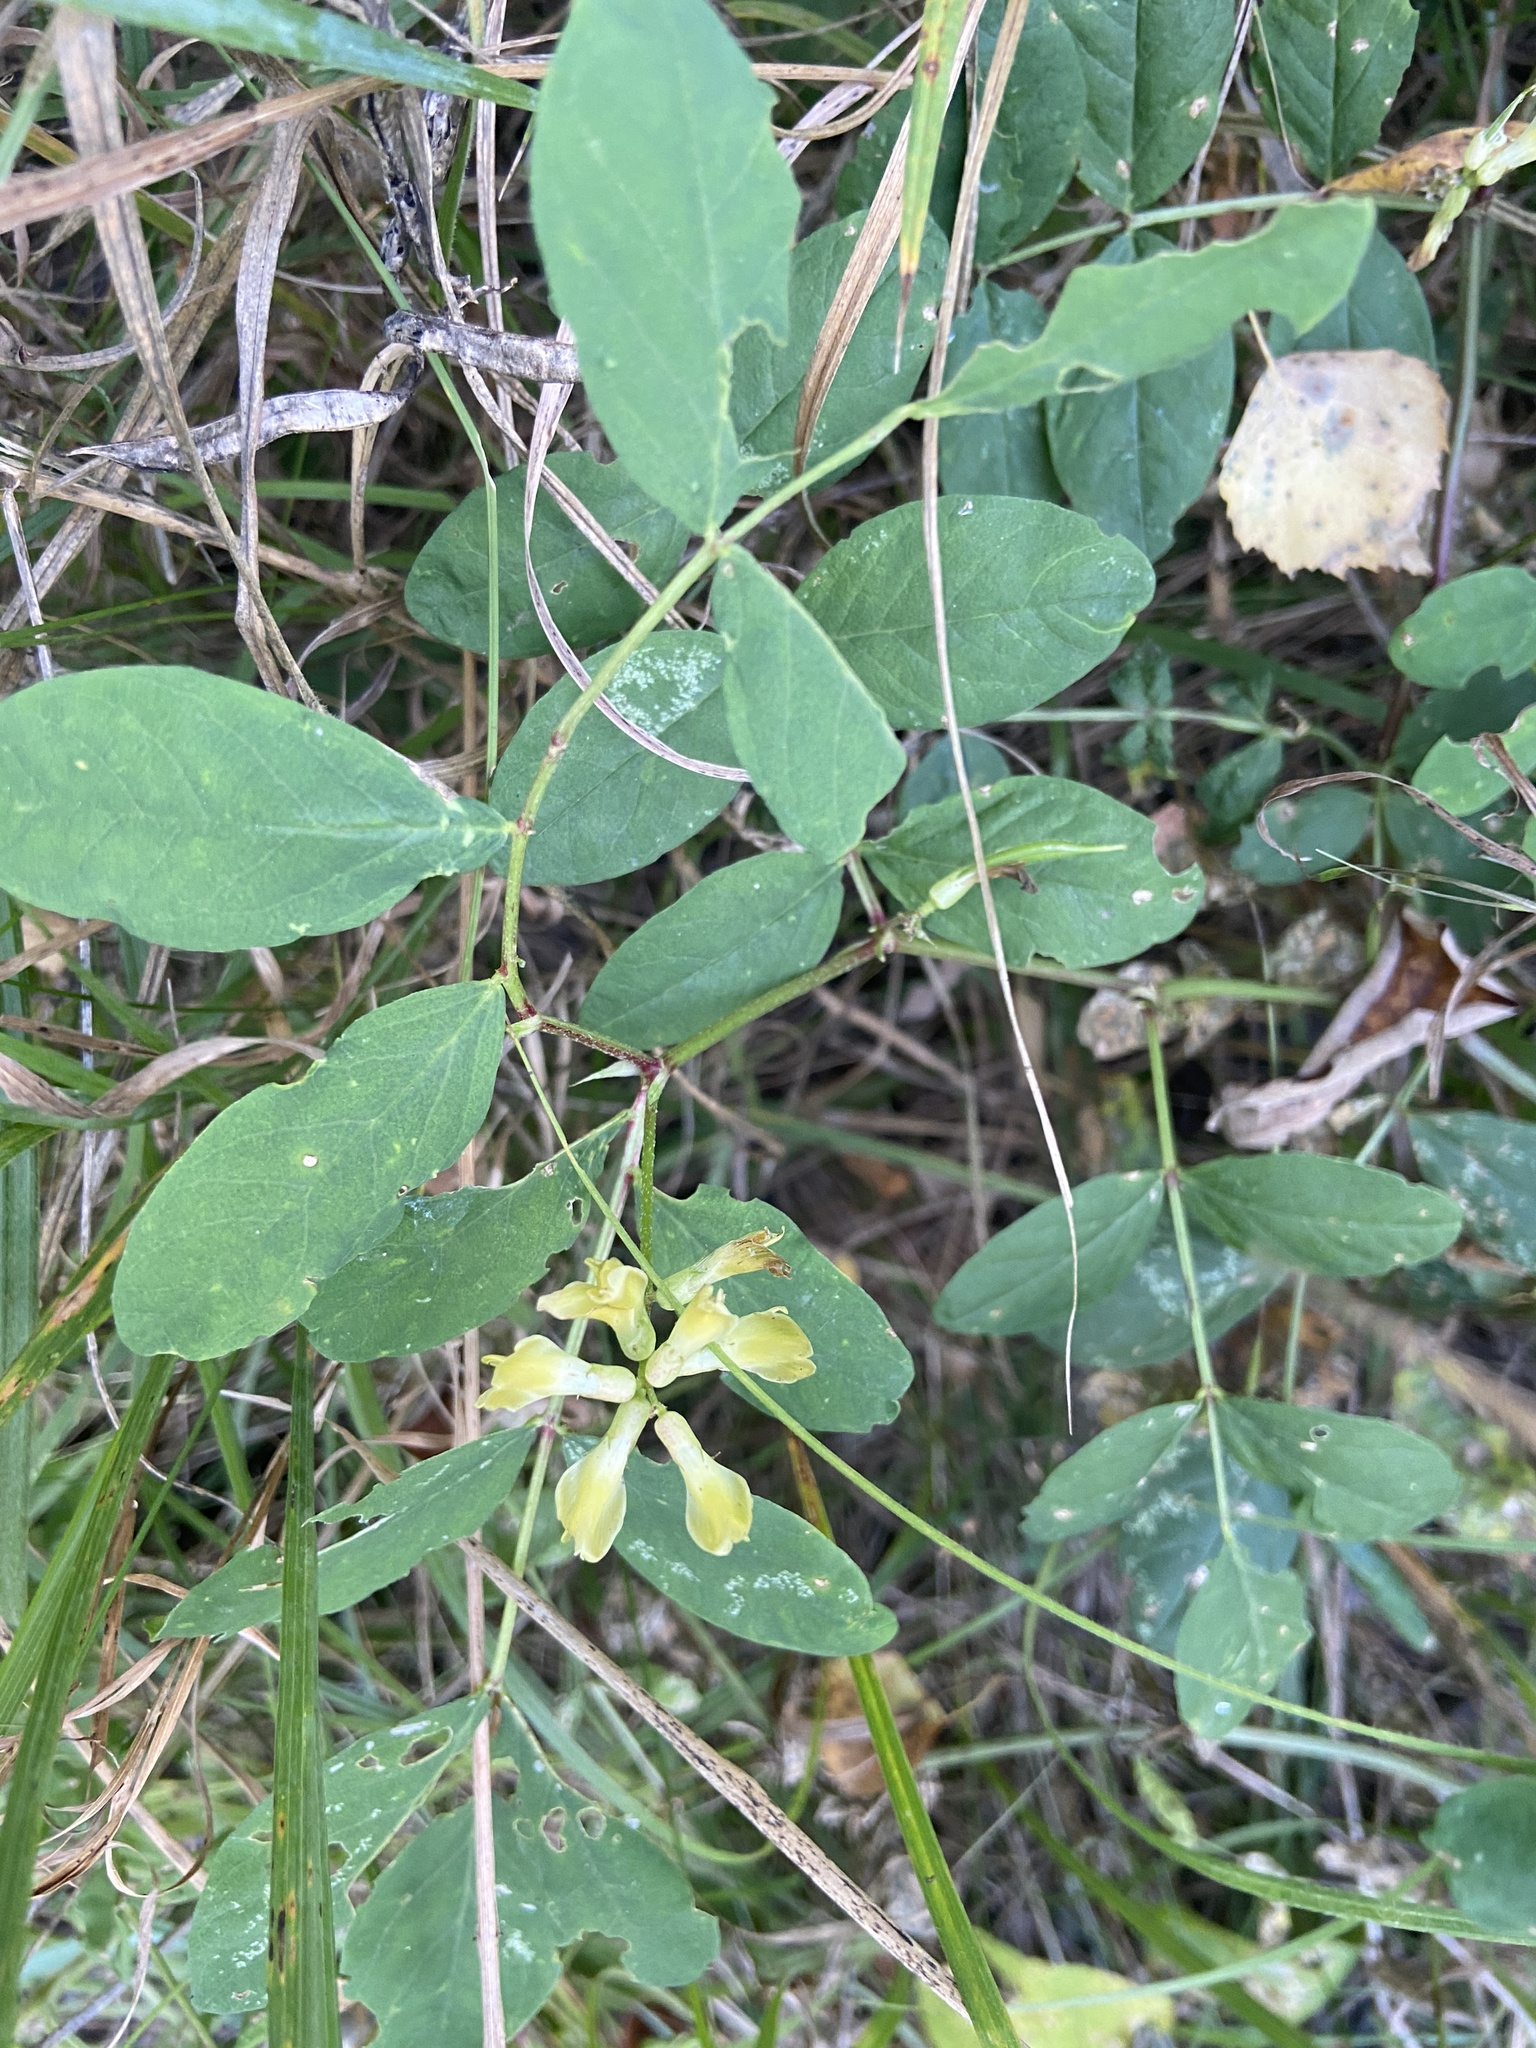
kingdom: Plantae
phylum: Tracheophyta
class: Magnoliopsida
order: Fabales
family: Fabaceae
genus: Astragalus
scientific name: Astragalus glycyphyllos
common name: Wild liquorice
